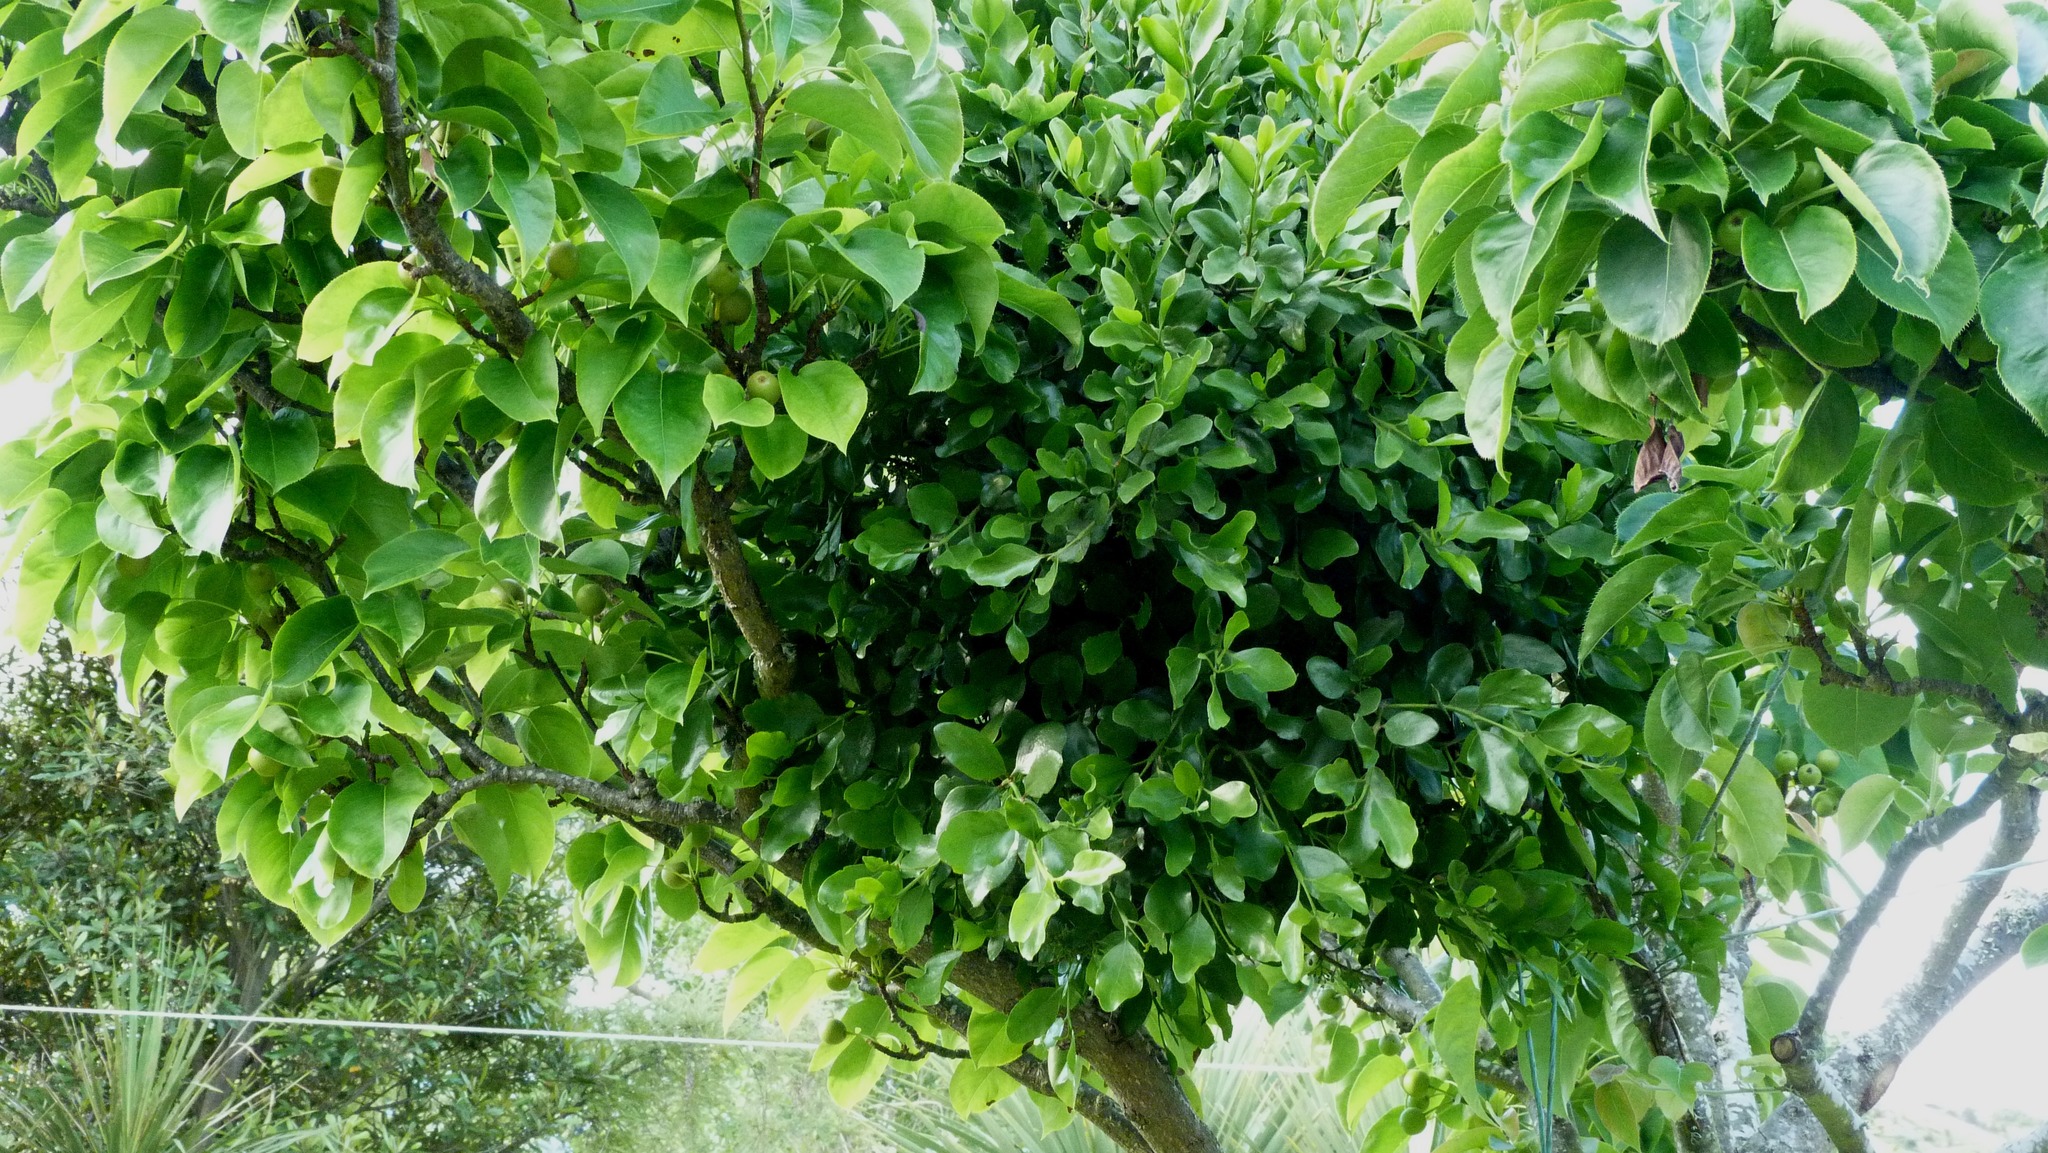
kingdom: Plantae
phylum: Tracheophyta
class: Magnoliopsida
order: Santalales
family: Loranthaceae
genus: Ileostylus
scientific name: Ileostylus micranthus
